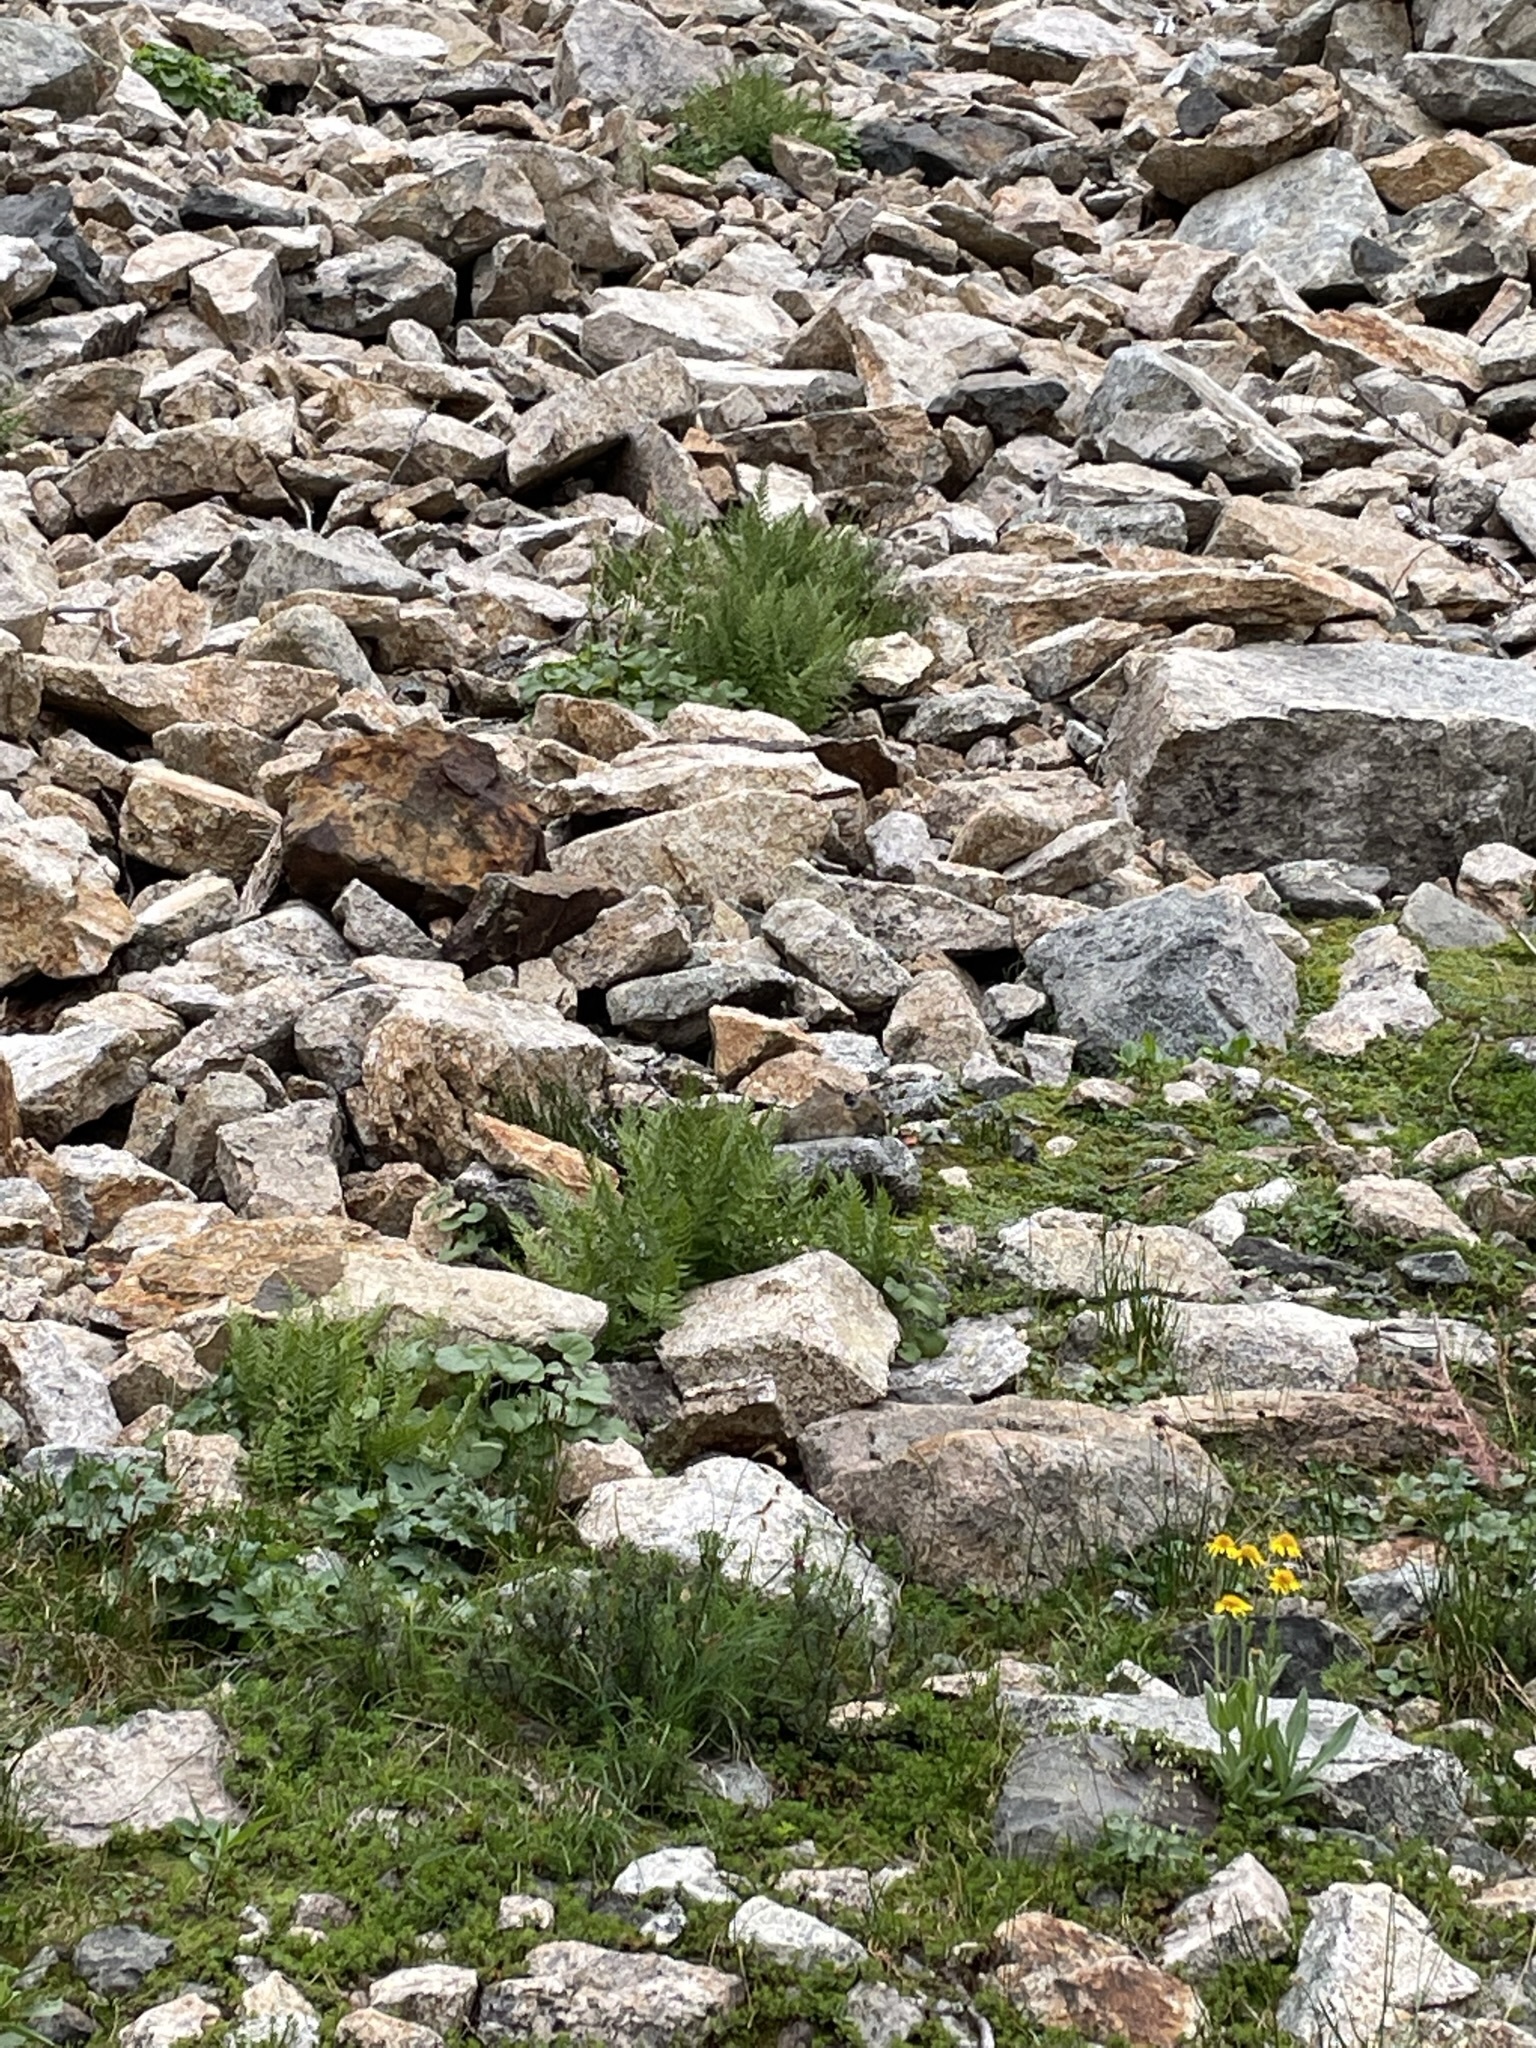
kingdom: Animalia
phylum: Chordata
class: Mammalia
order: Lagomorpha
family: Ochotonidae
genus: Ochotona
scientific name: Ochotona princeps
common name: American pika
